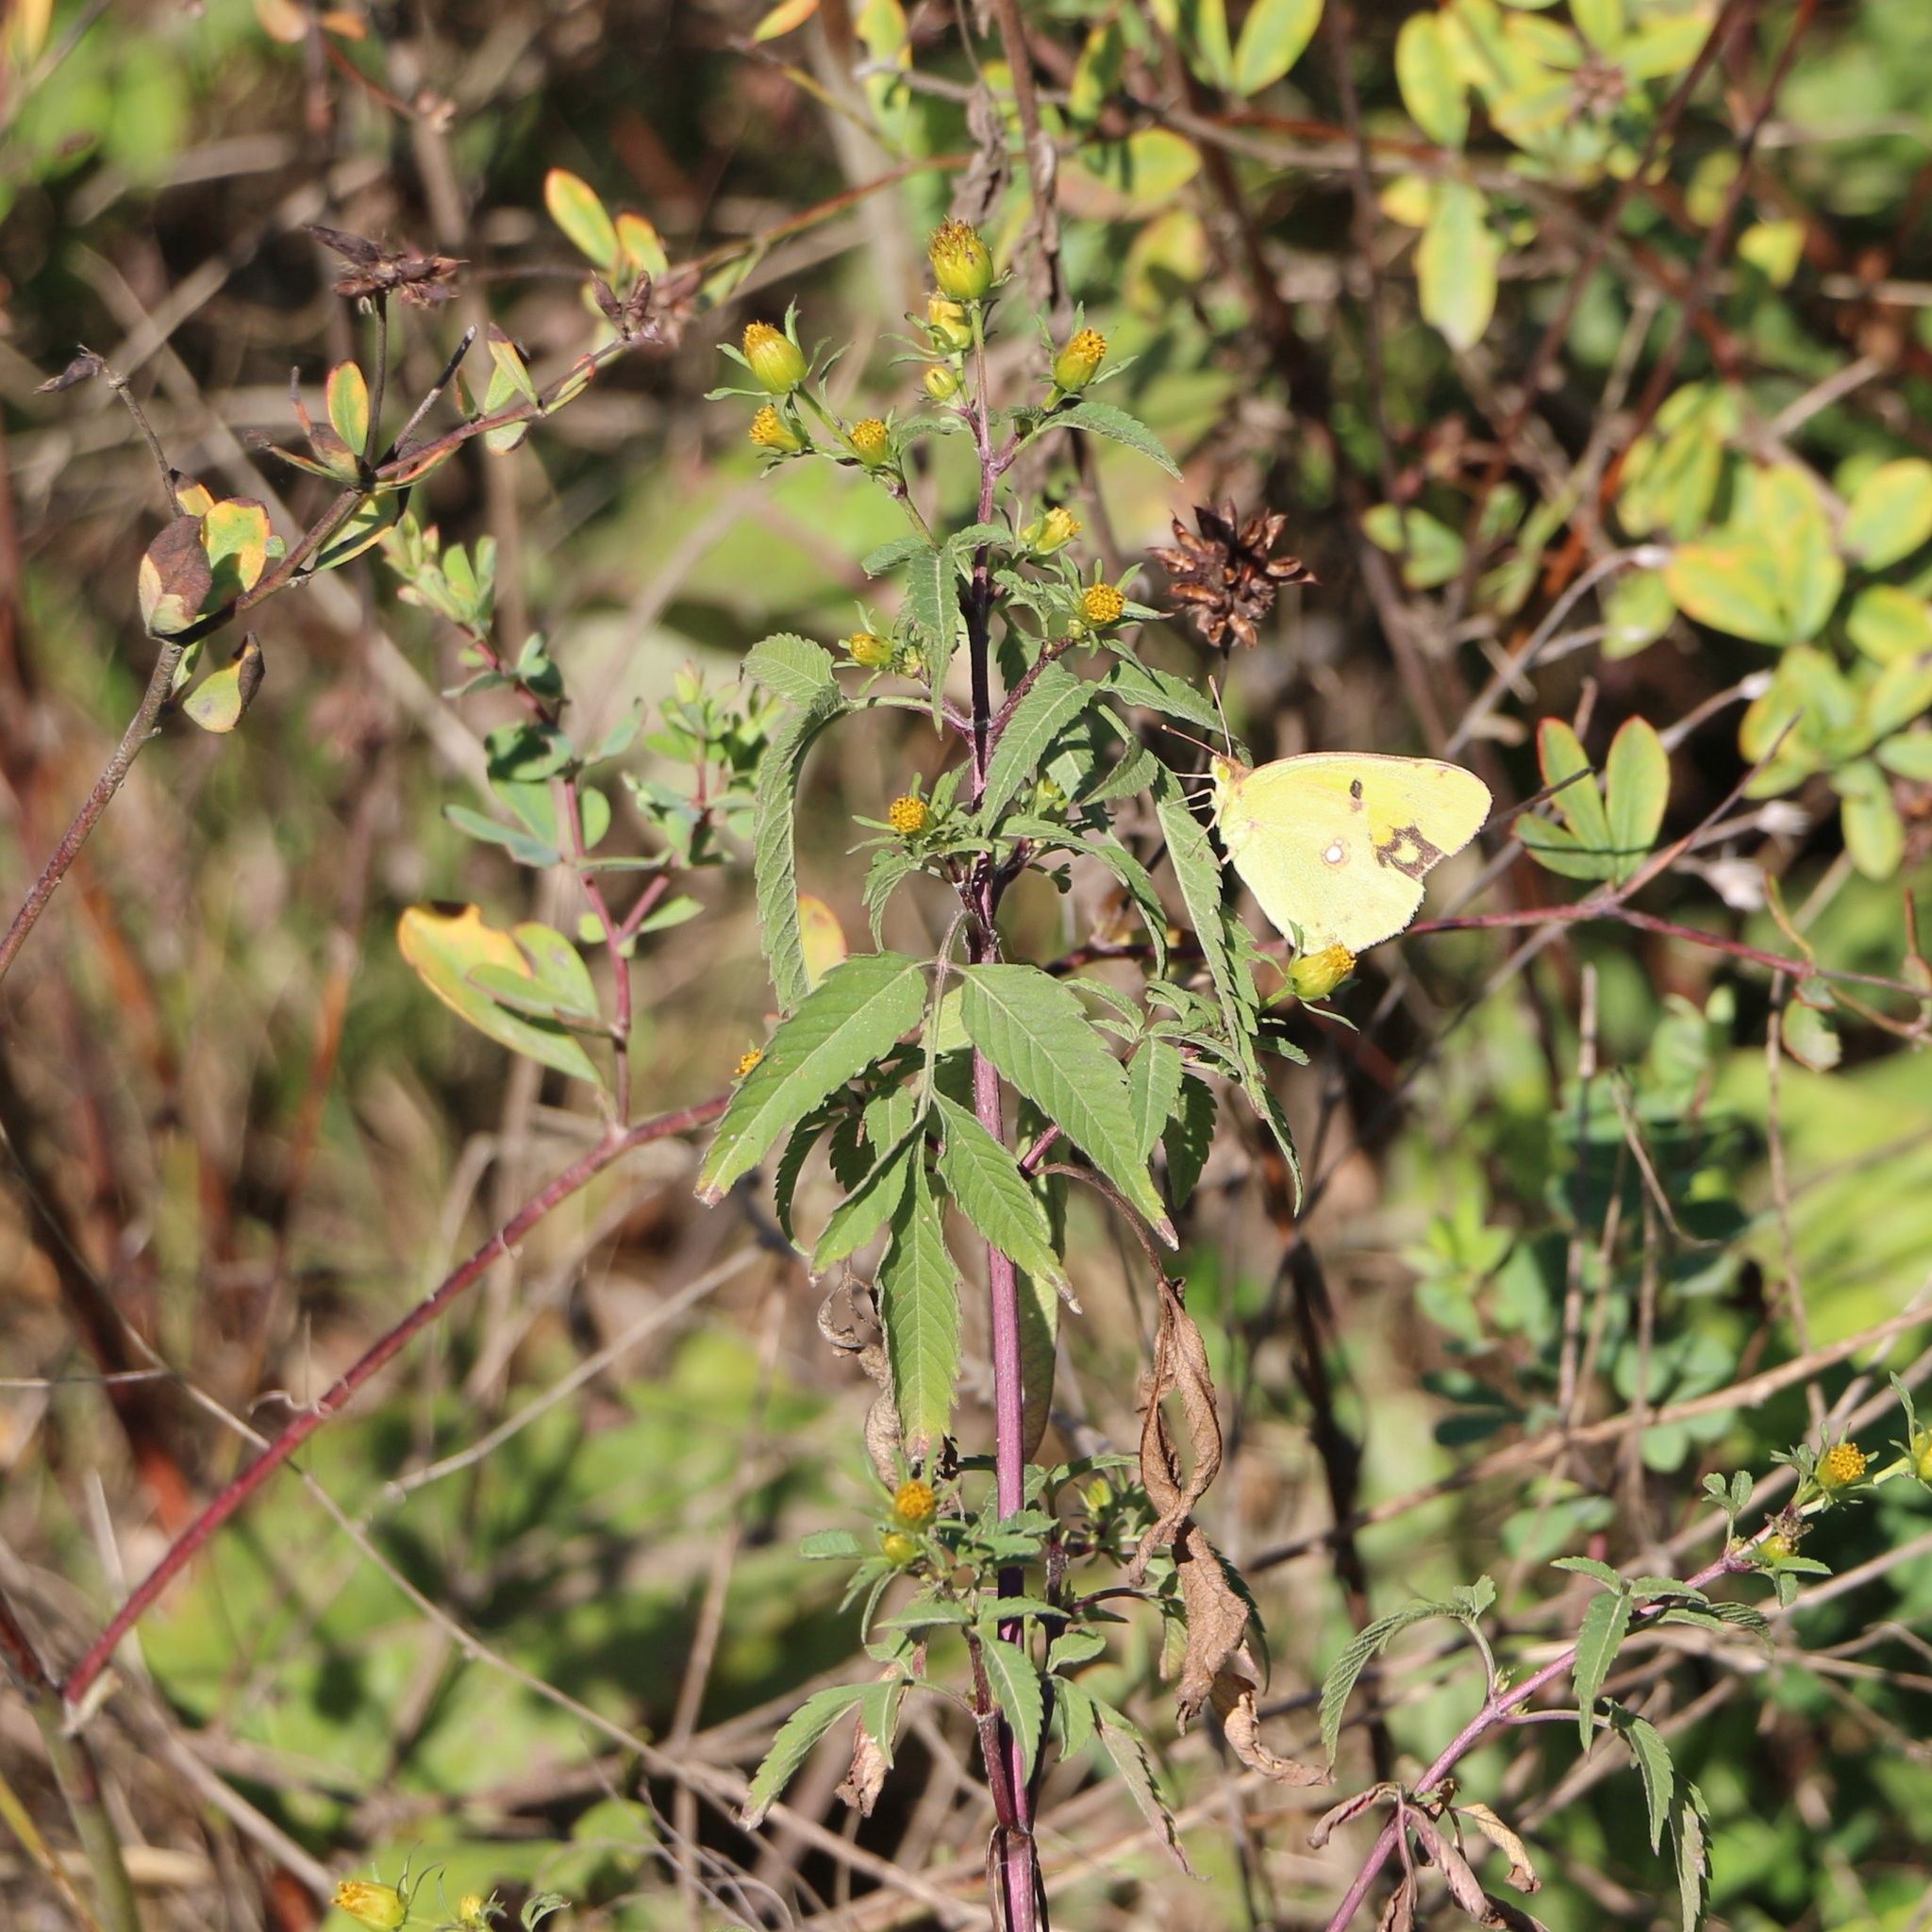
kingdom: Plantae
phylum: Tracheophyta
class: Magnoliopsida
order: Asterales
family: Asteraceae
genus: Bidens
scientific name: Bidens frondosa
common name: Beggarticks
